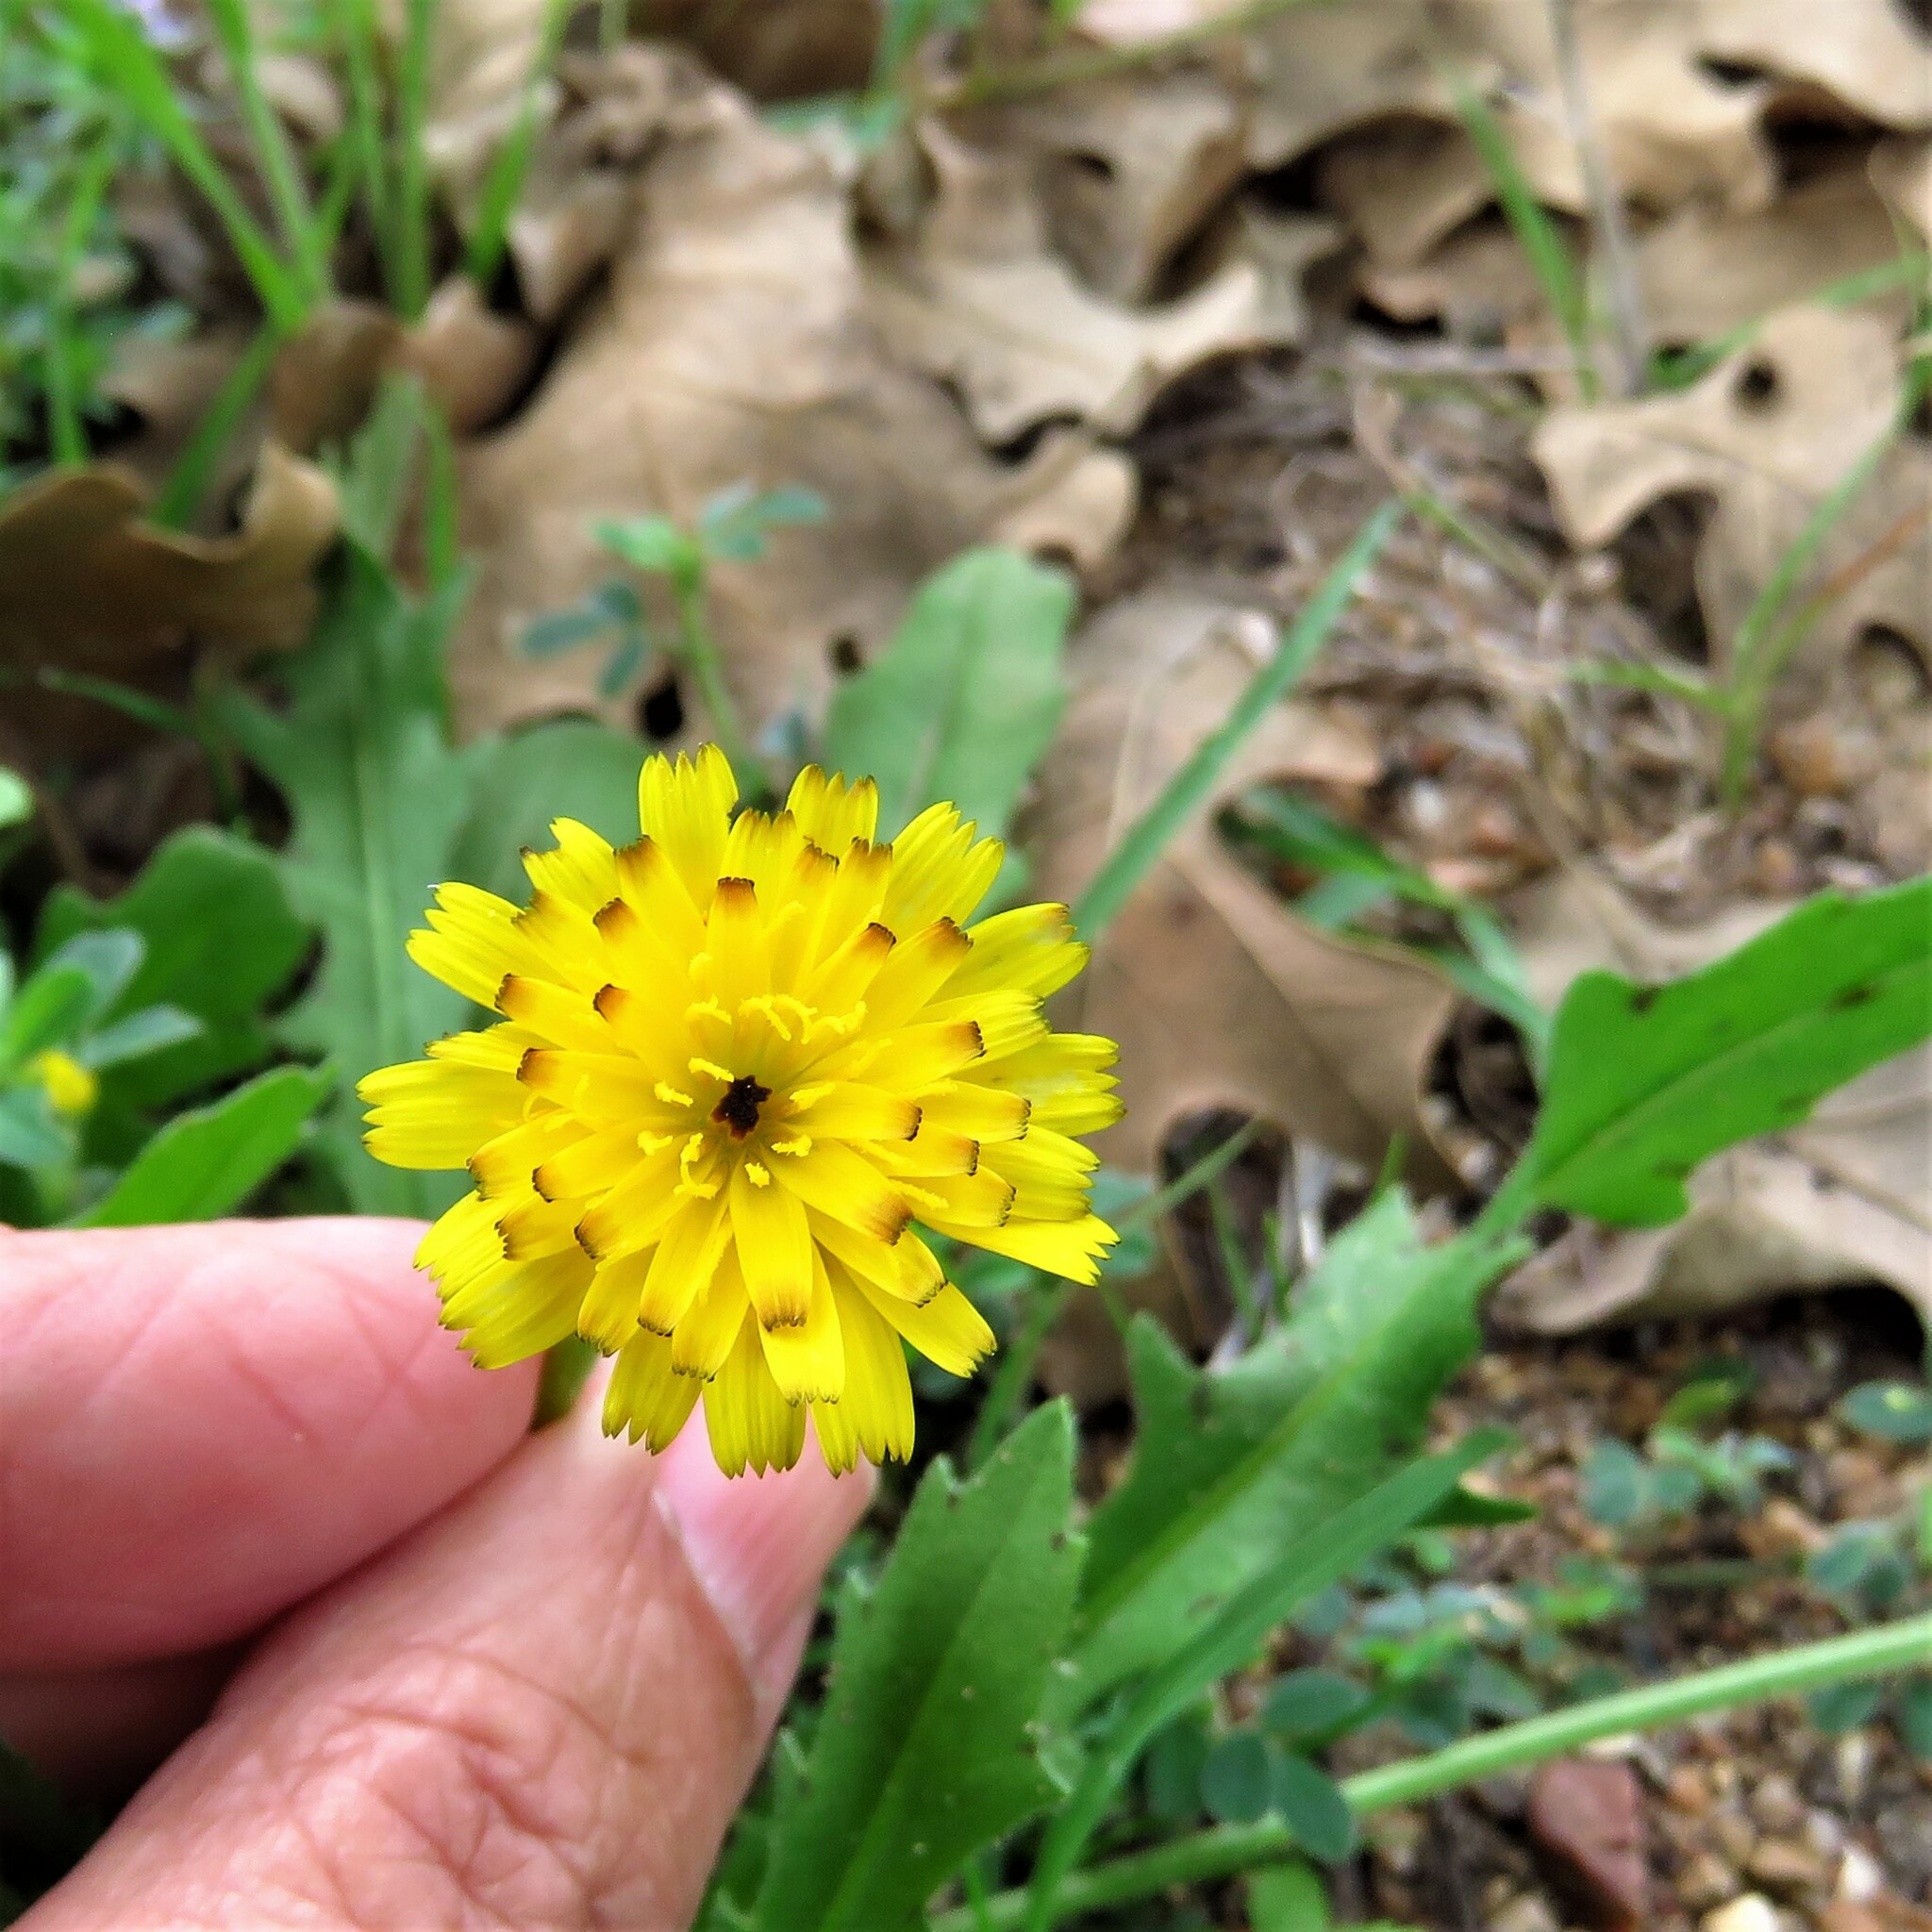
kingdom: Plantae
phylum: Tracheophyta
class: Magnoliopsida
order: Asterales
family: Asteraceae
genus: Hedypnois
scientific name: Hedypnois rhagadioloides
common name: Cretan weed
